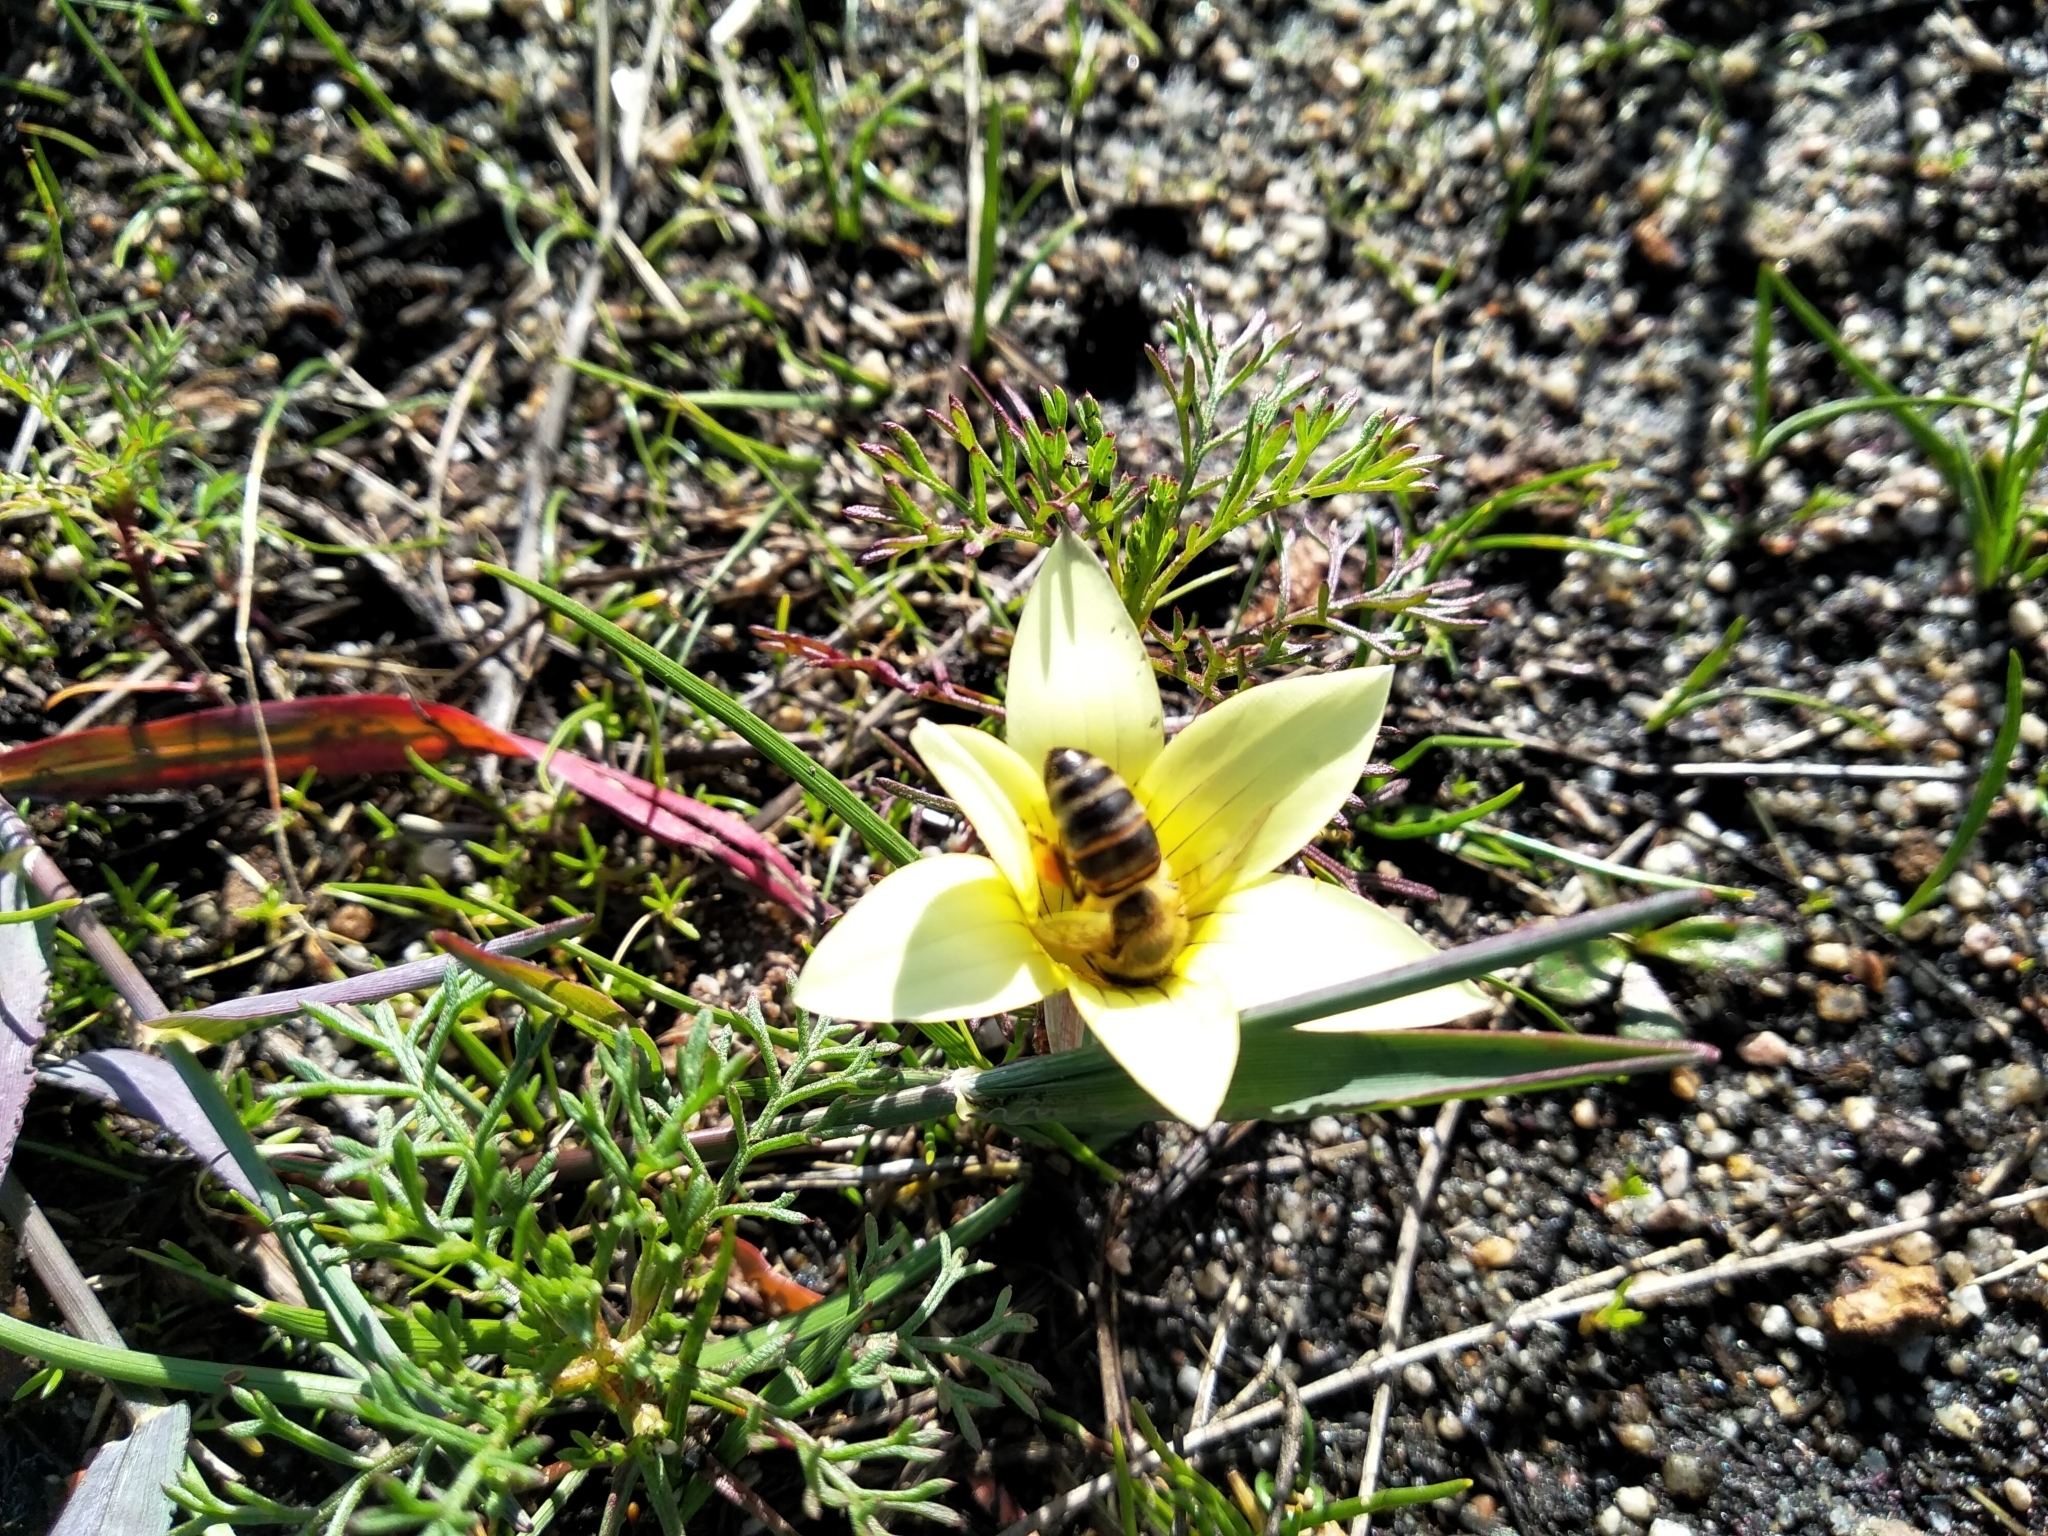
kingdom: Plantae
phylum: Tracheophyta
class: Liliopsida
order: Asparagales
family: Iridaceae
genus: Romulea
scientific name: Romulea flava
